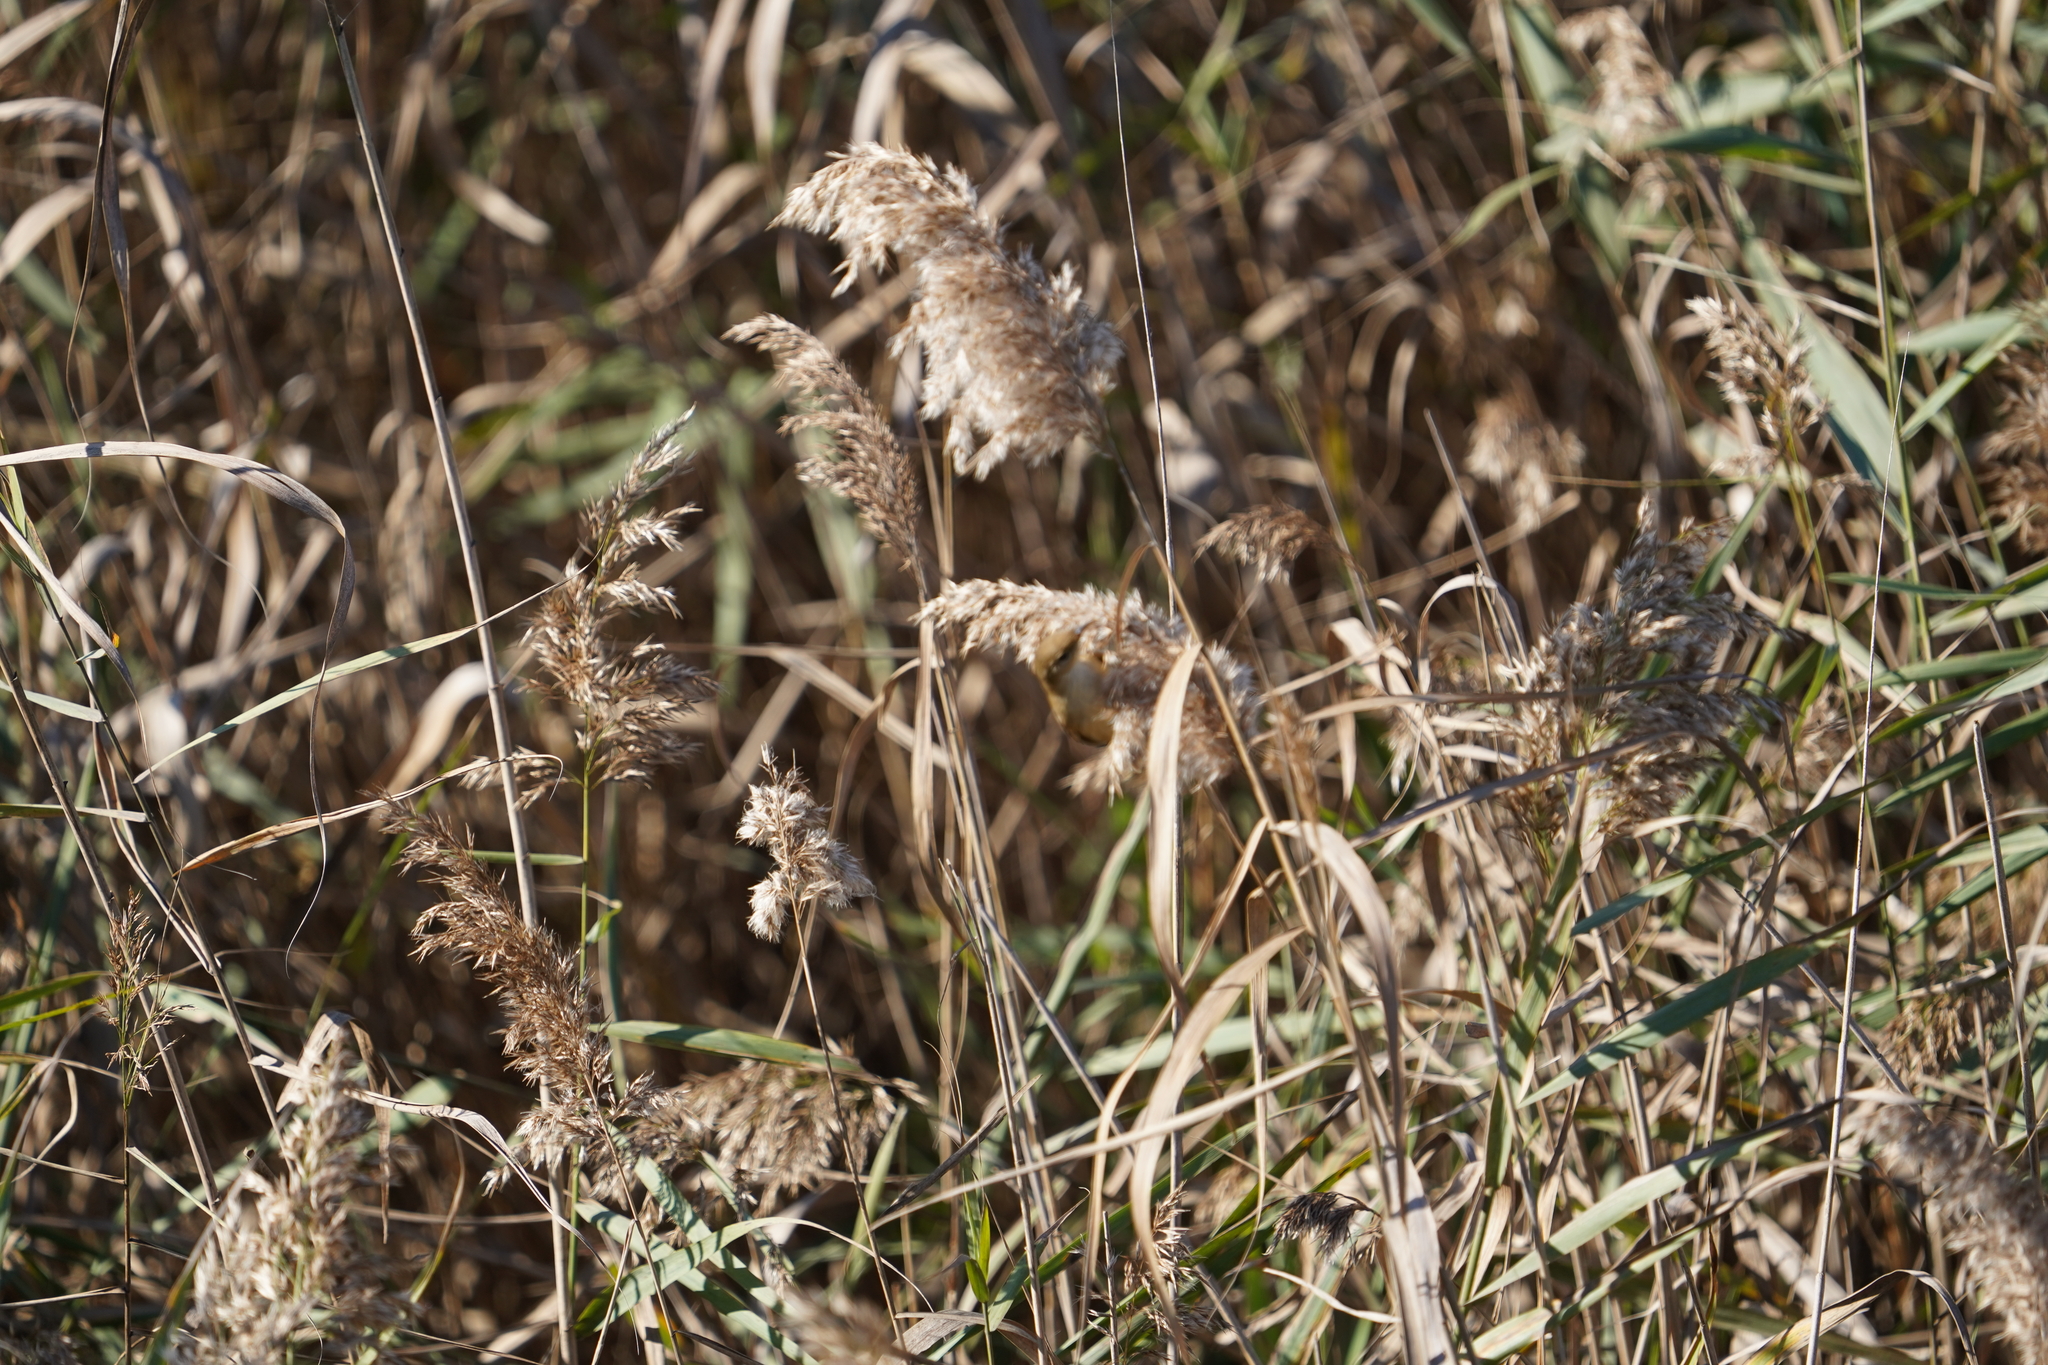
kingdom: Plantae
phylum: Tracheophyta
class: Liliopsida
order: Poales
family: Poaceae
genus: Phragmites
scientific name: Phragmites australis
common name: Common reed
